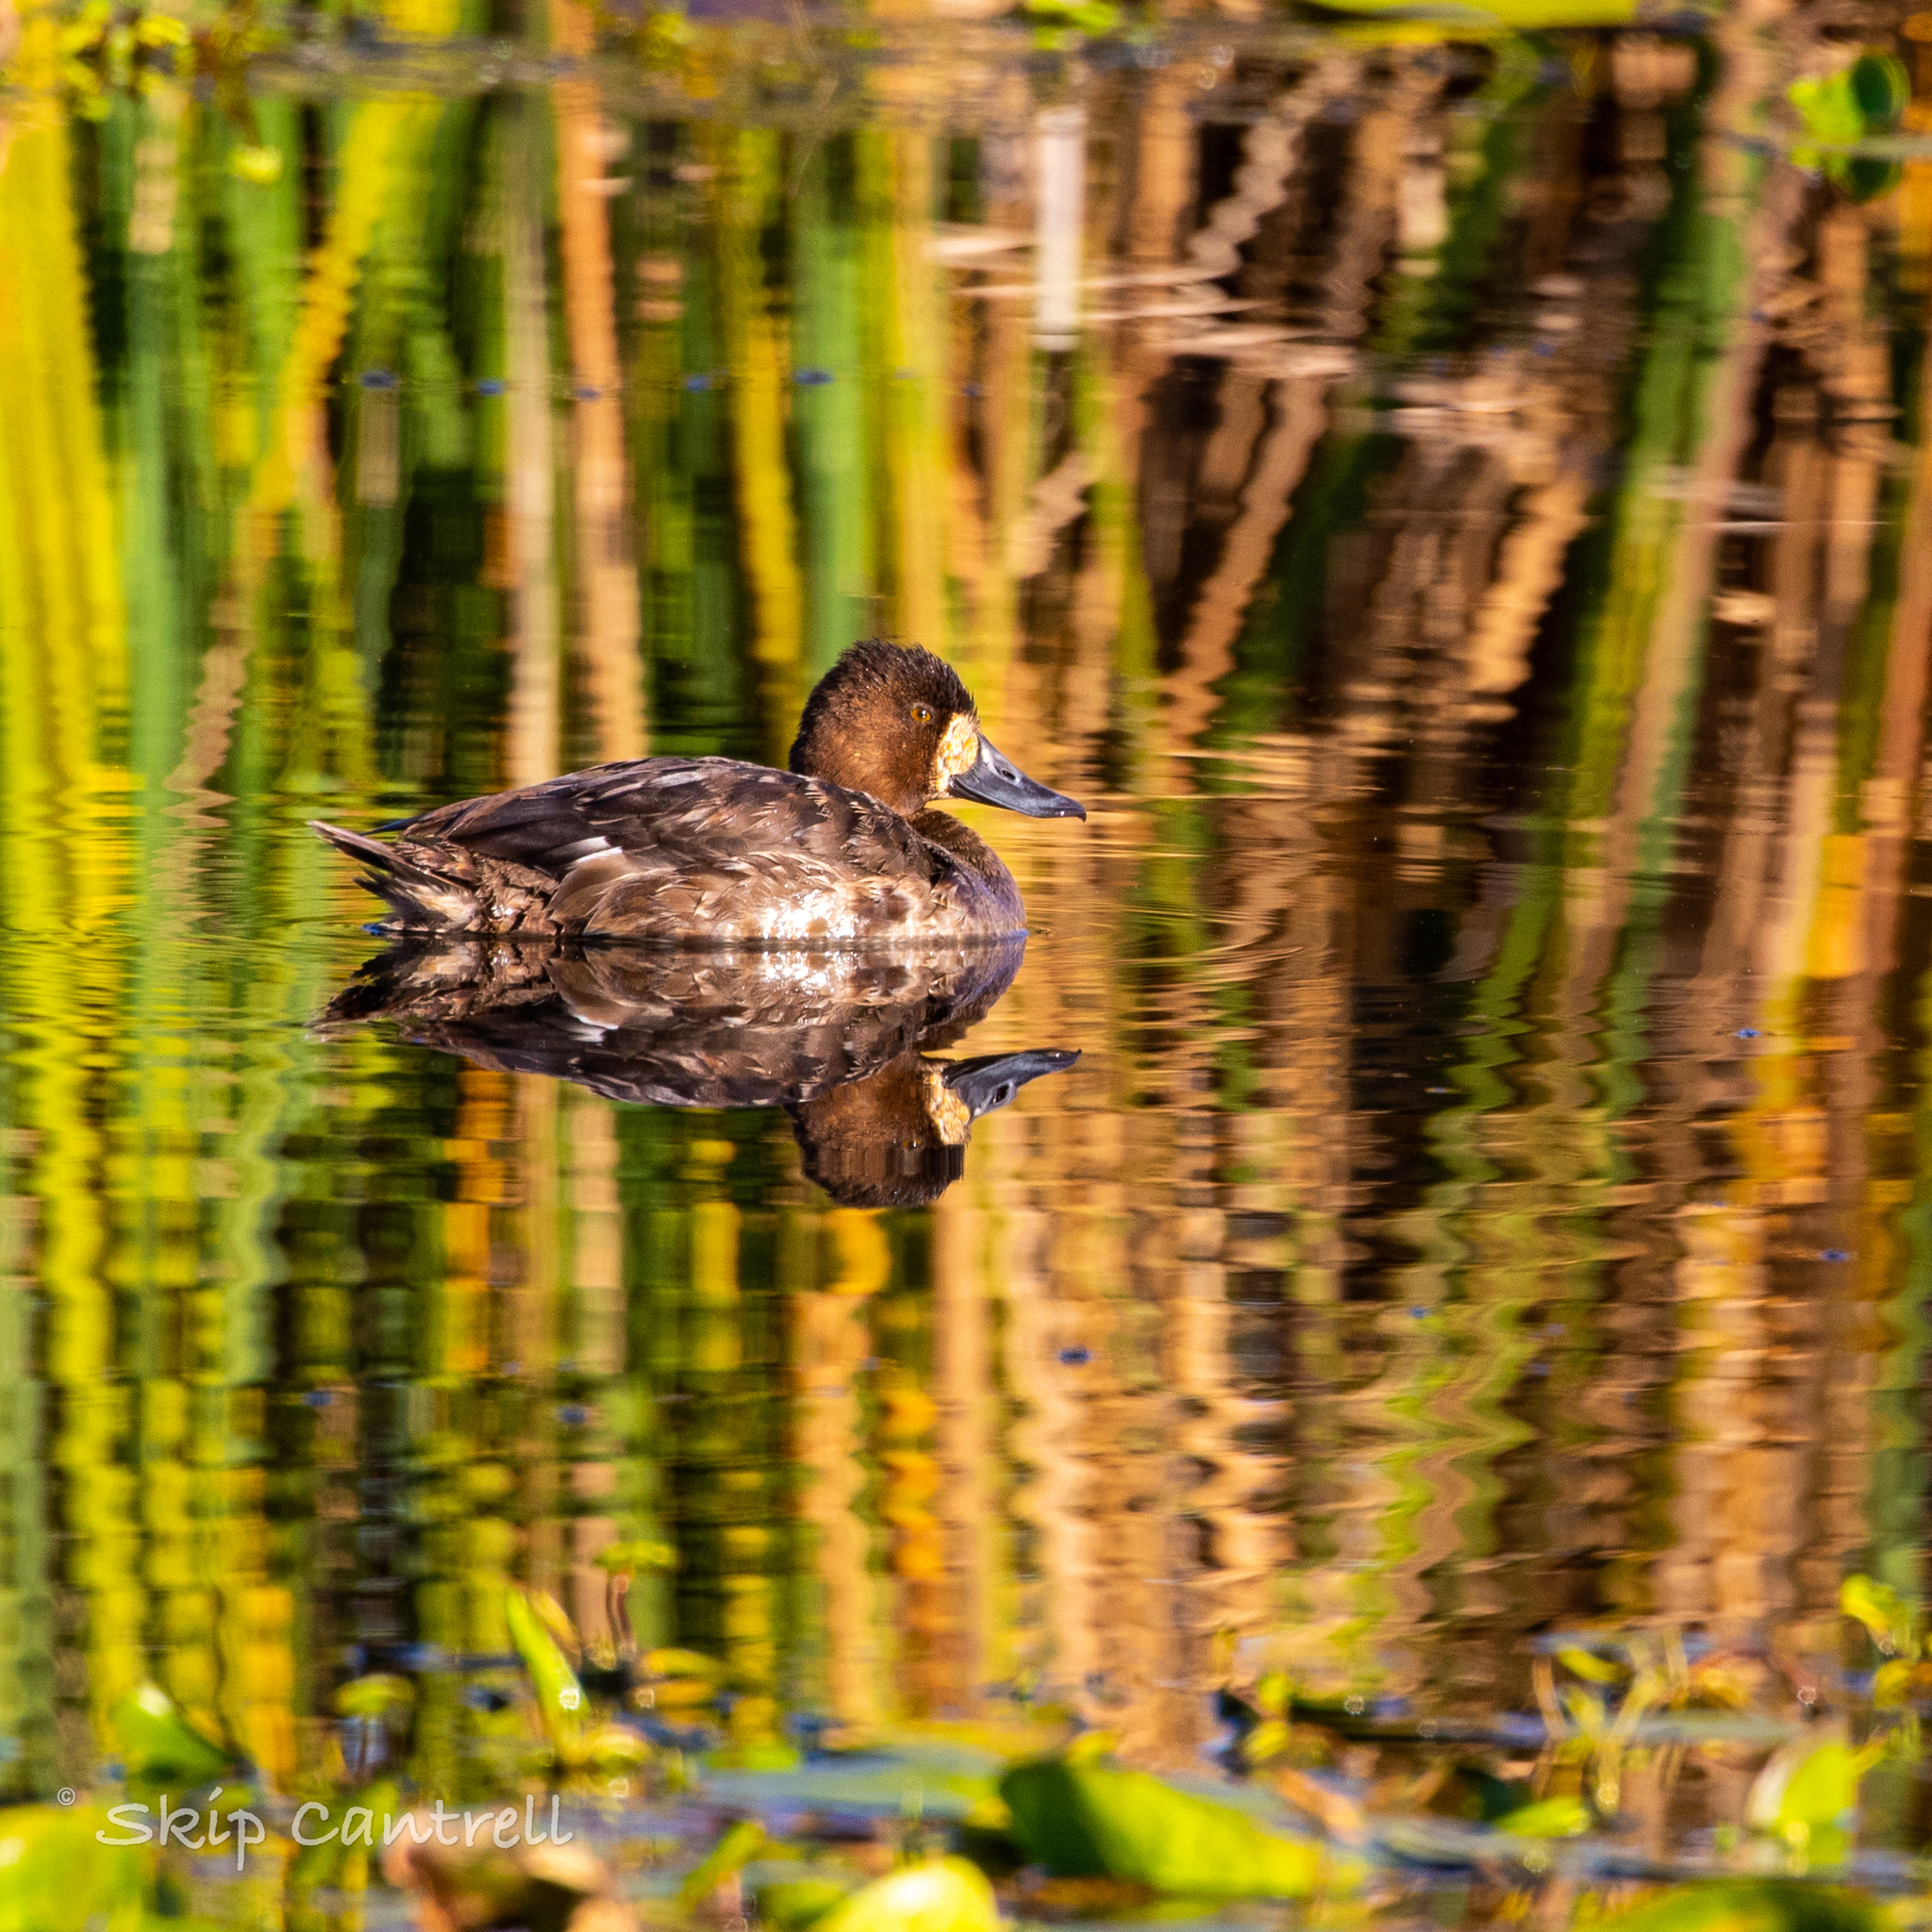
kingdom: Animalia
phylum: Chordata
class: Aves
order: Anseriformes
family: Anatidae
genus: Aythya
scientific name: Aythya marila
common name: Greater scaup
